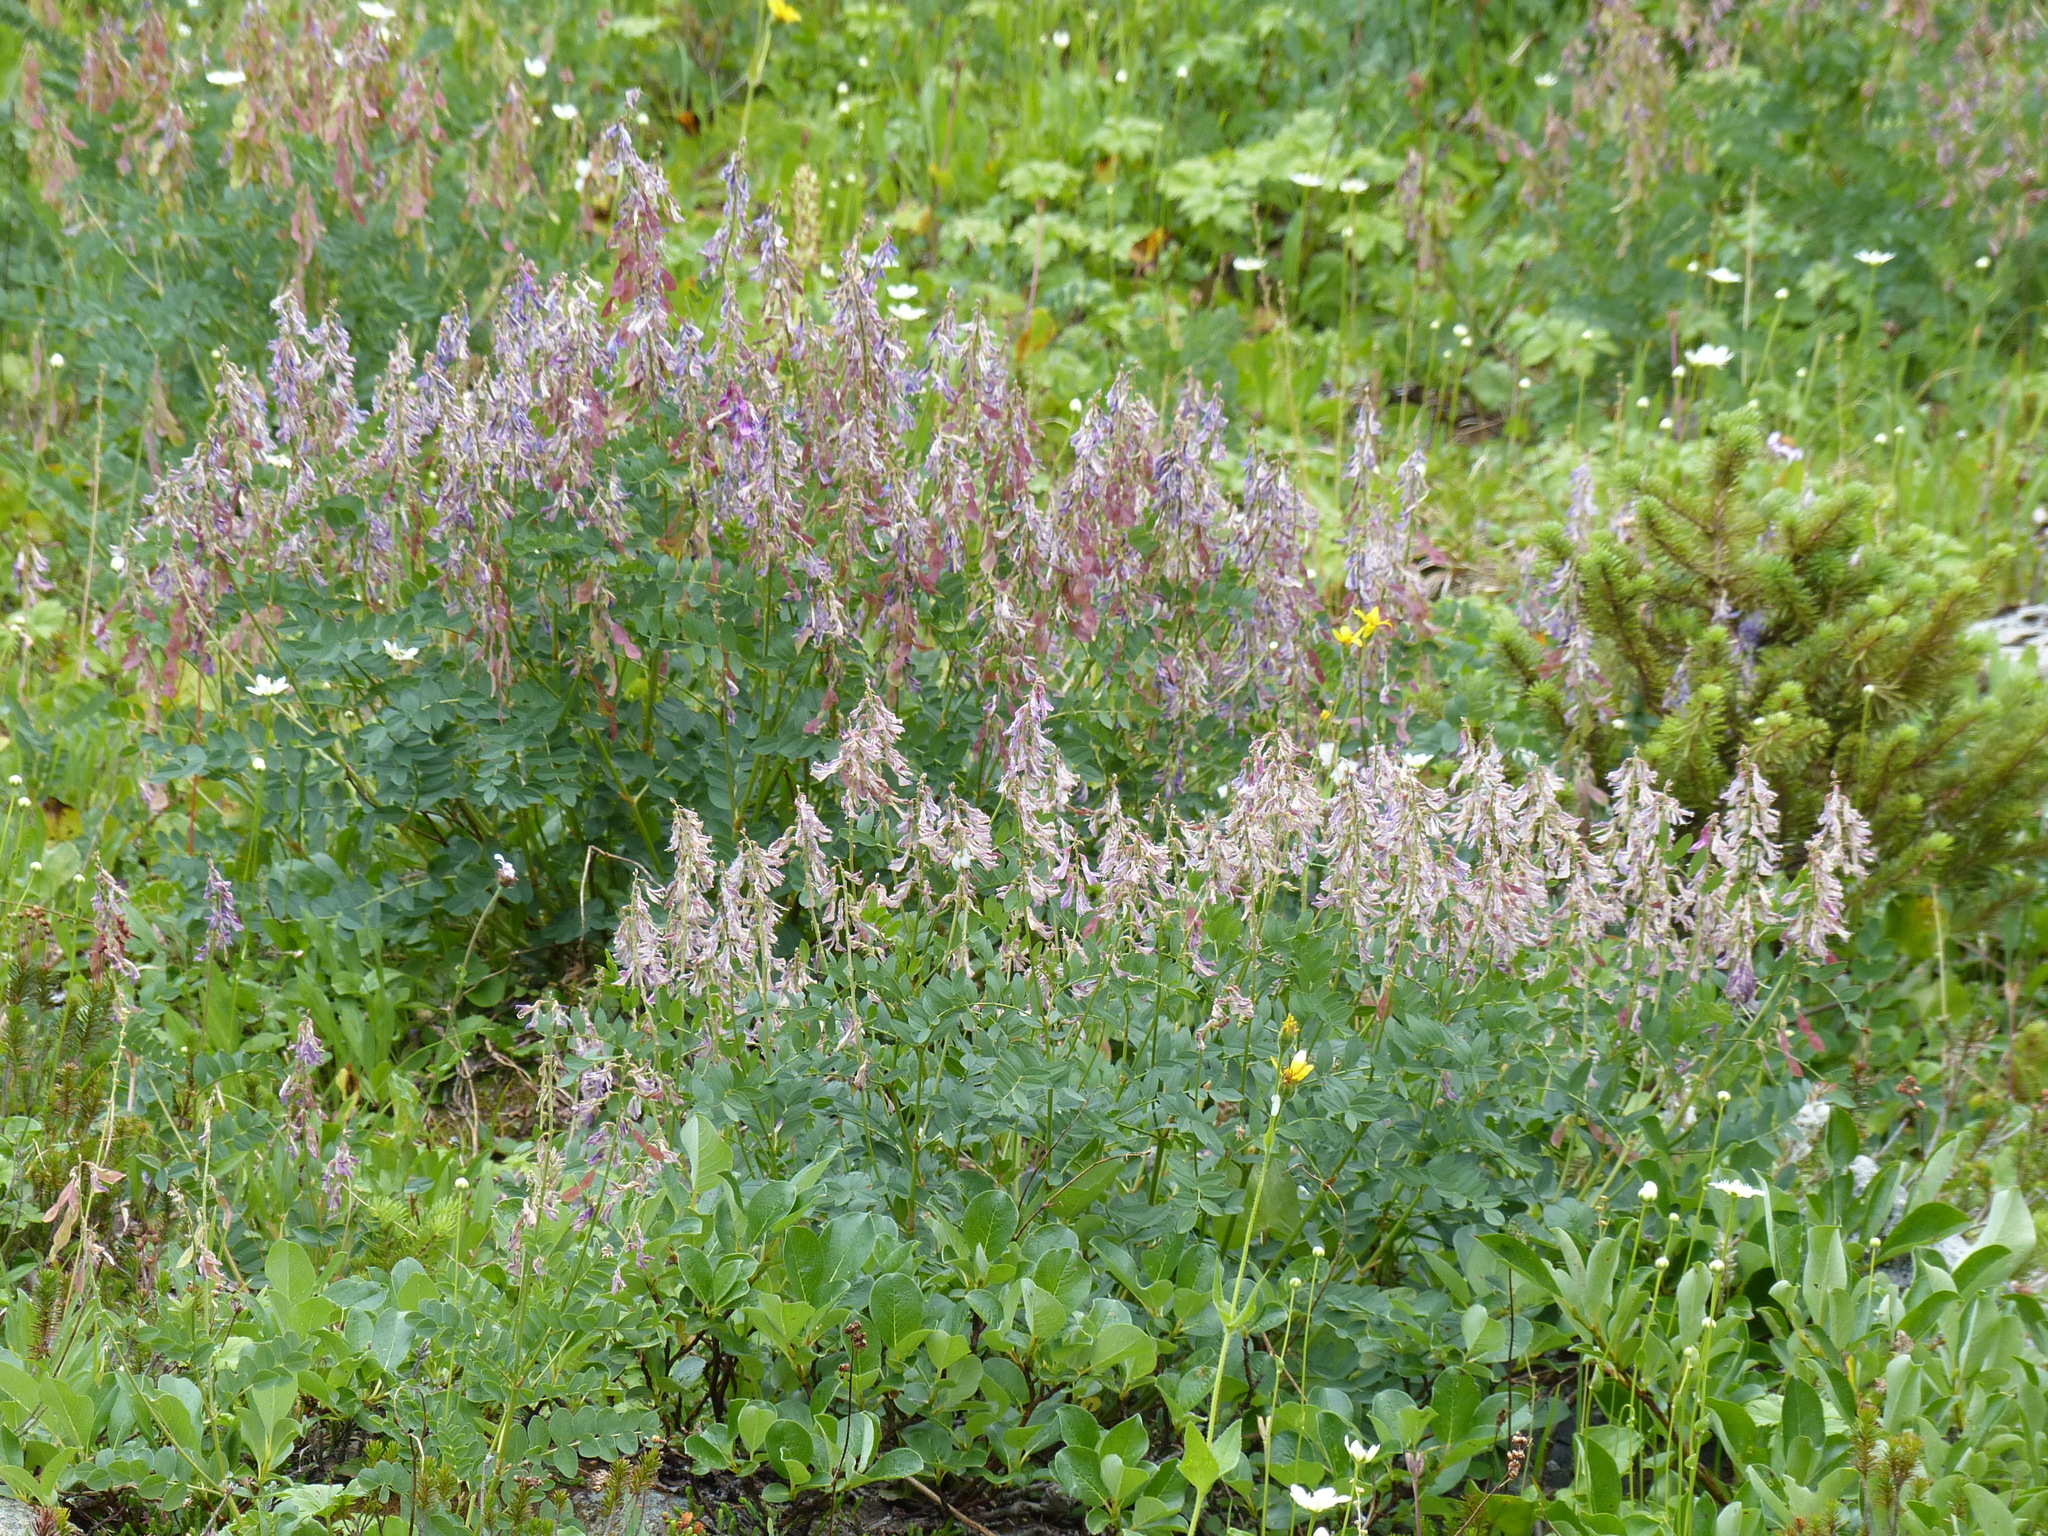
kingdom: Plantae
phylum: Tracheophyta
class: Magnoliopsida
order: Fabales
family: Fabaceae
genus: Hedysarum
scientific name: Hedysarum occidentale
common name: Western hedysarum
